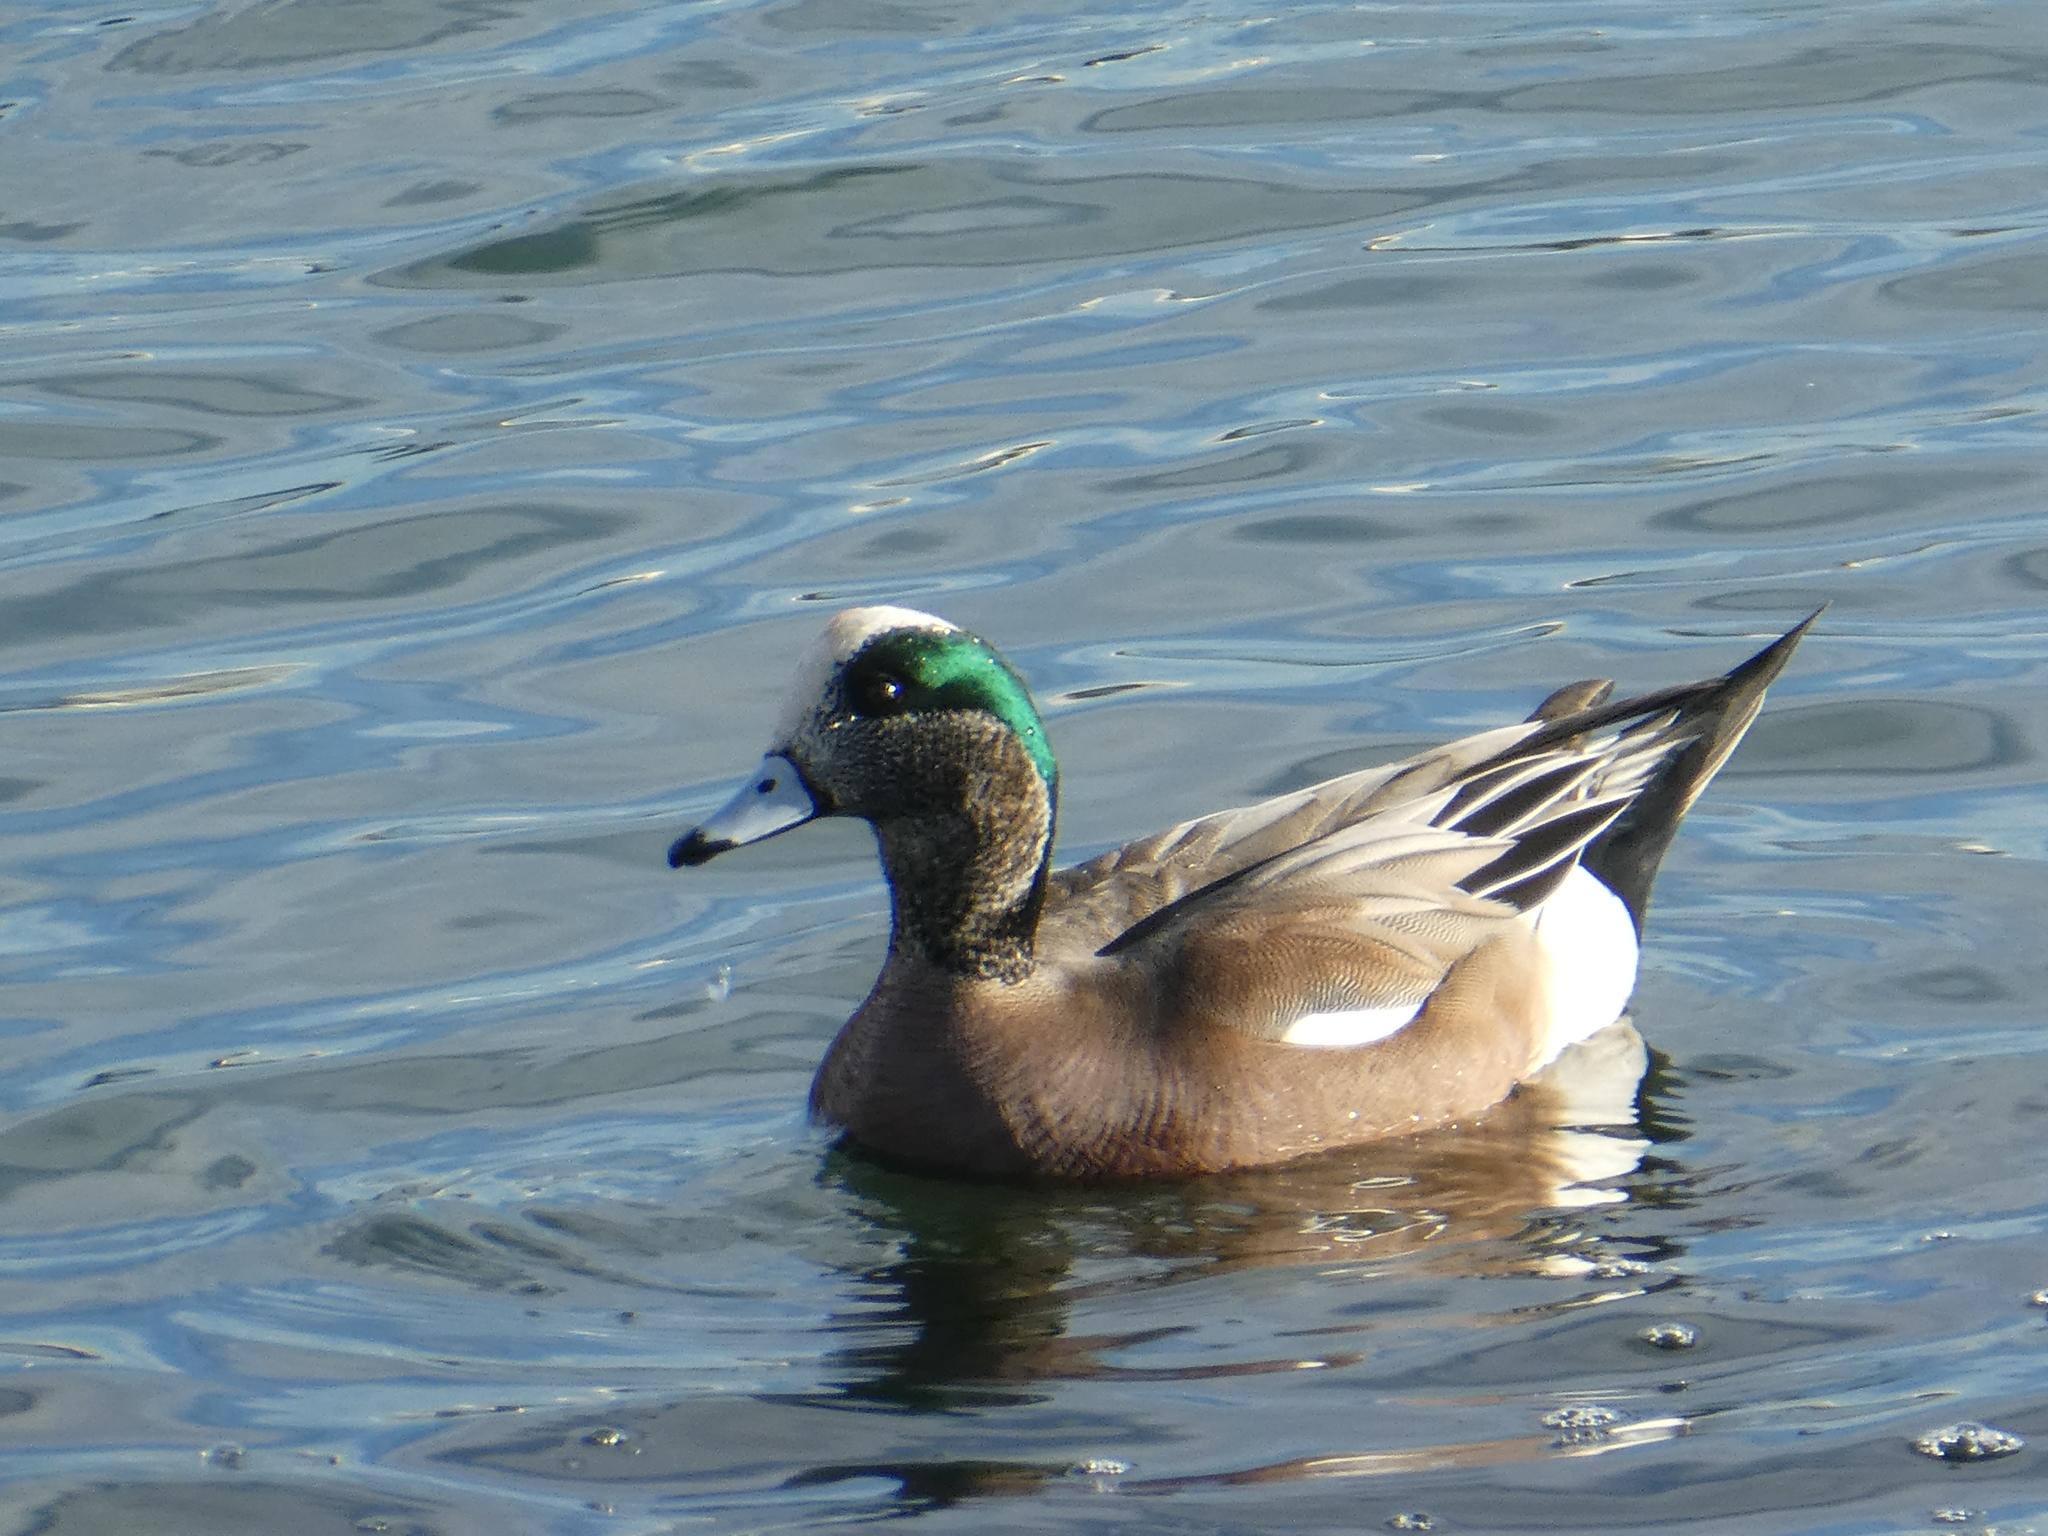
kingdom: Animalia
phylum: Chordata
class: Aves
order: Anseriformes
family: Anatidae
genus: Mareca
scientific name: Mareca americana
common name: American wigeon
